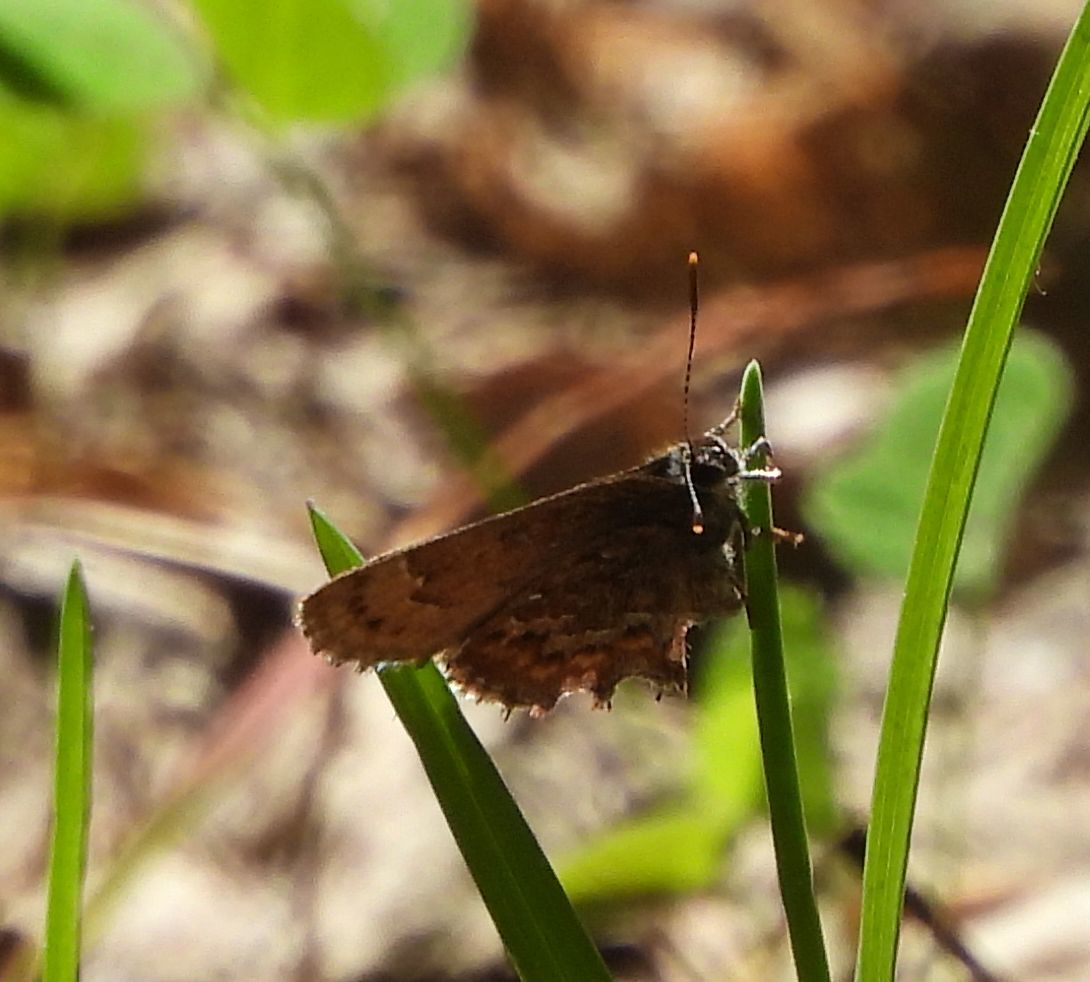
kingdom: Animalia
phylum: Arthropoda
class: Insecta
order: Lepidoptera
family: Lycaenidae
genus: Incisalia
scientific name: Incisalia niphon
